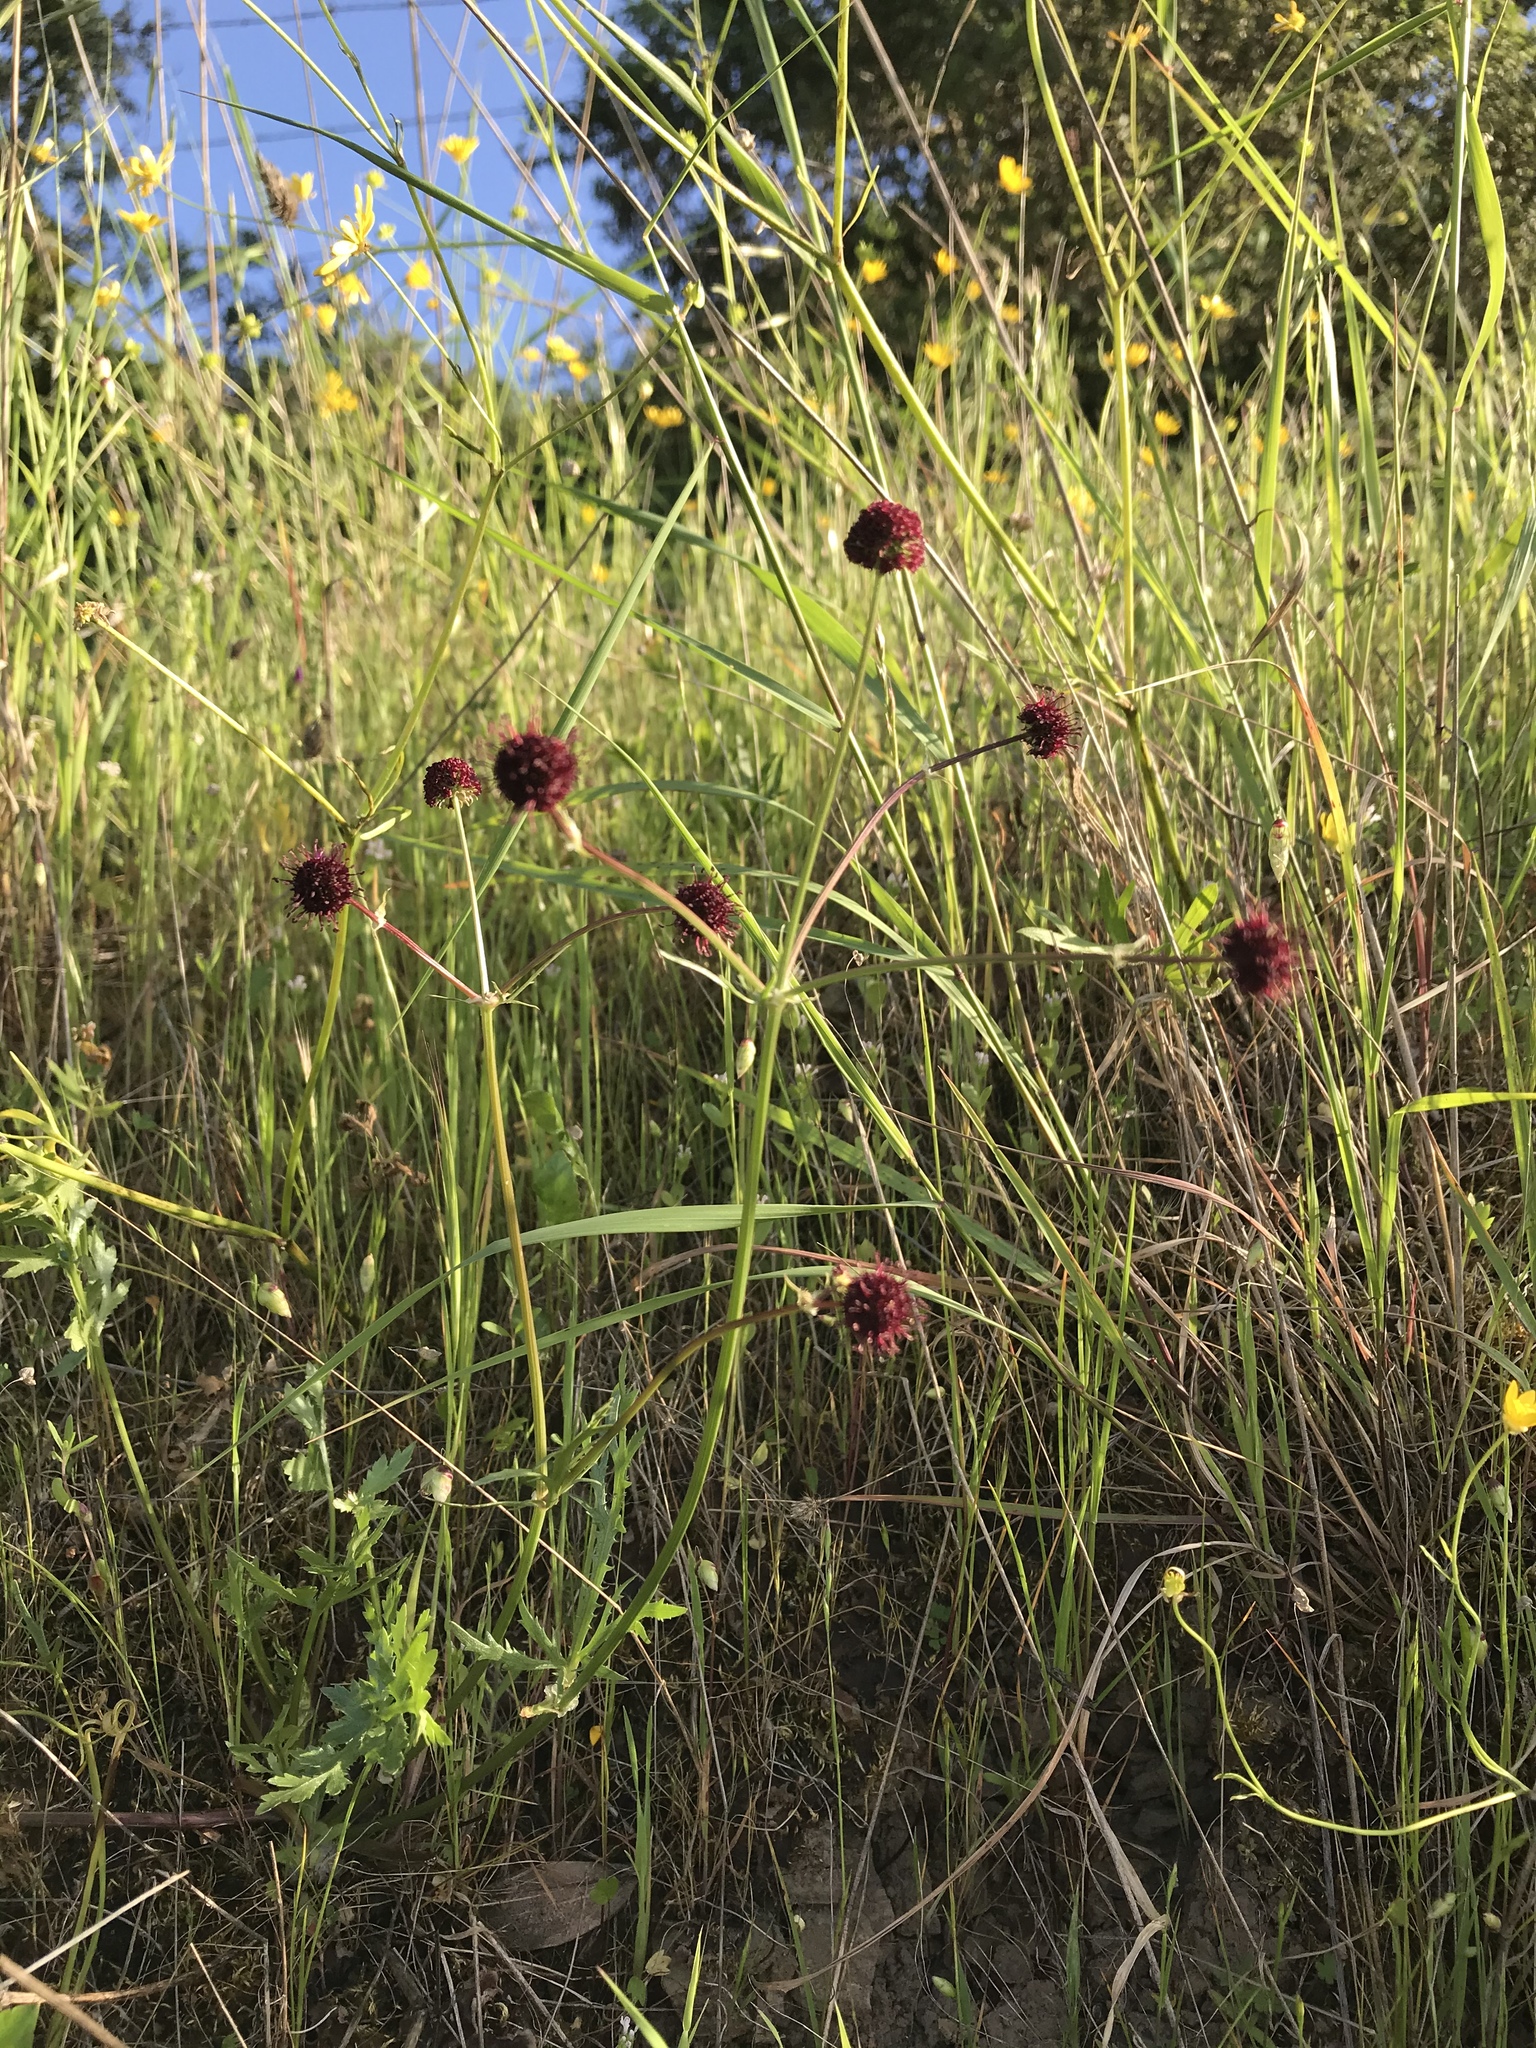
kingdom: Plantae
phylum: Tracheophyta
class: Magnoliopsida
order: Apiales
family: Apiaceae
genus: Sanicula
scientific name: Sanicula bipinnatifida
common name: Shoe-buttons
